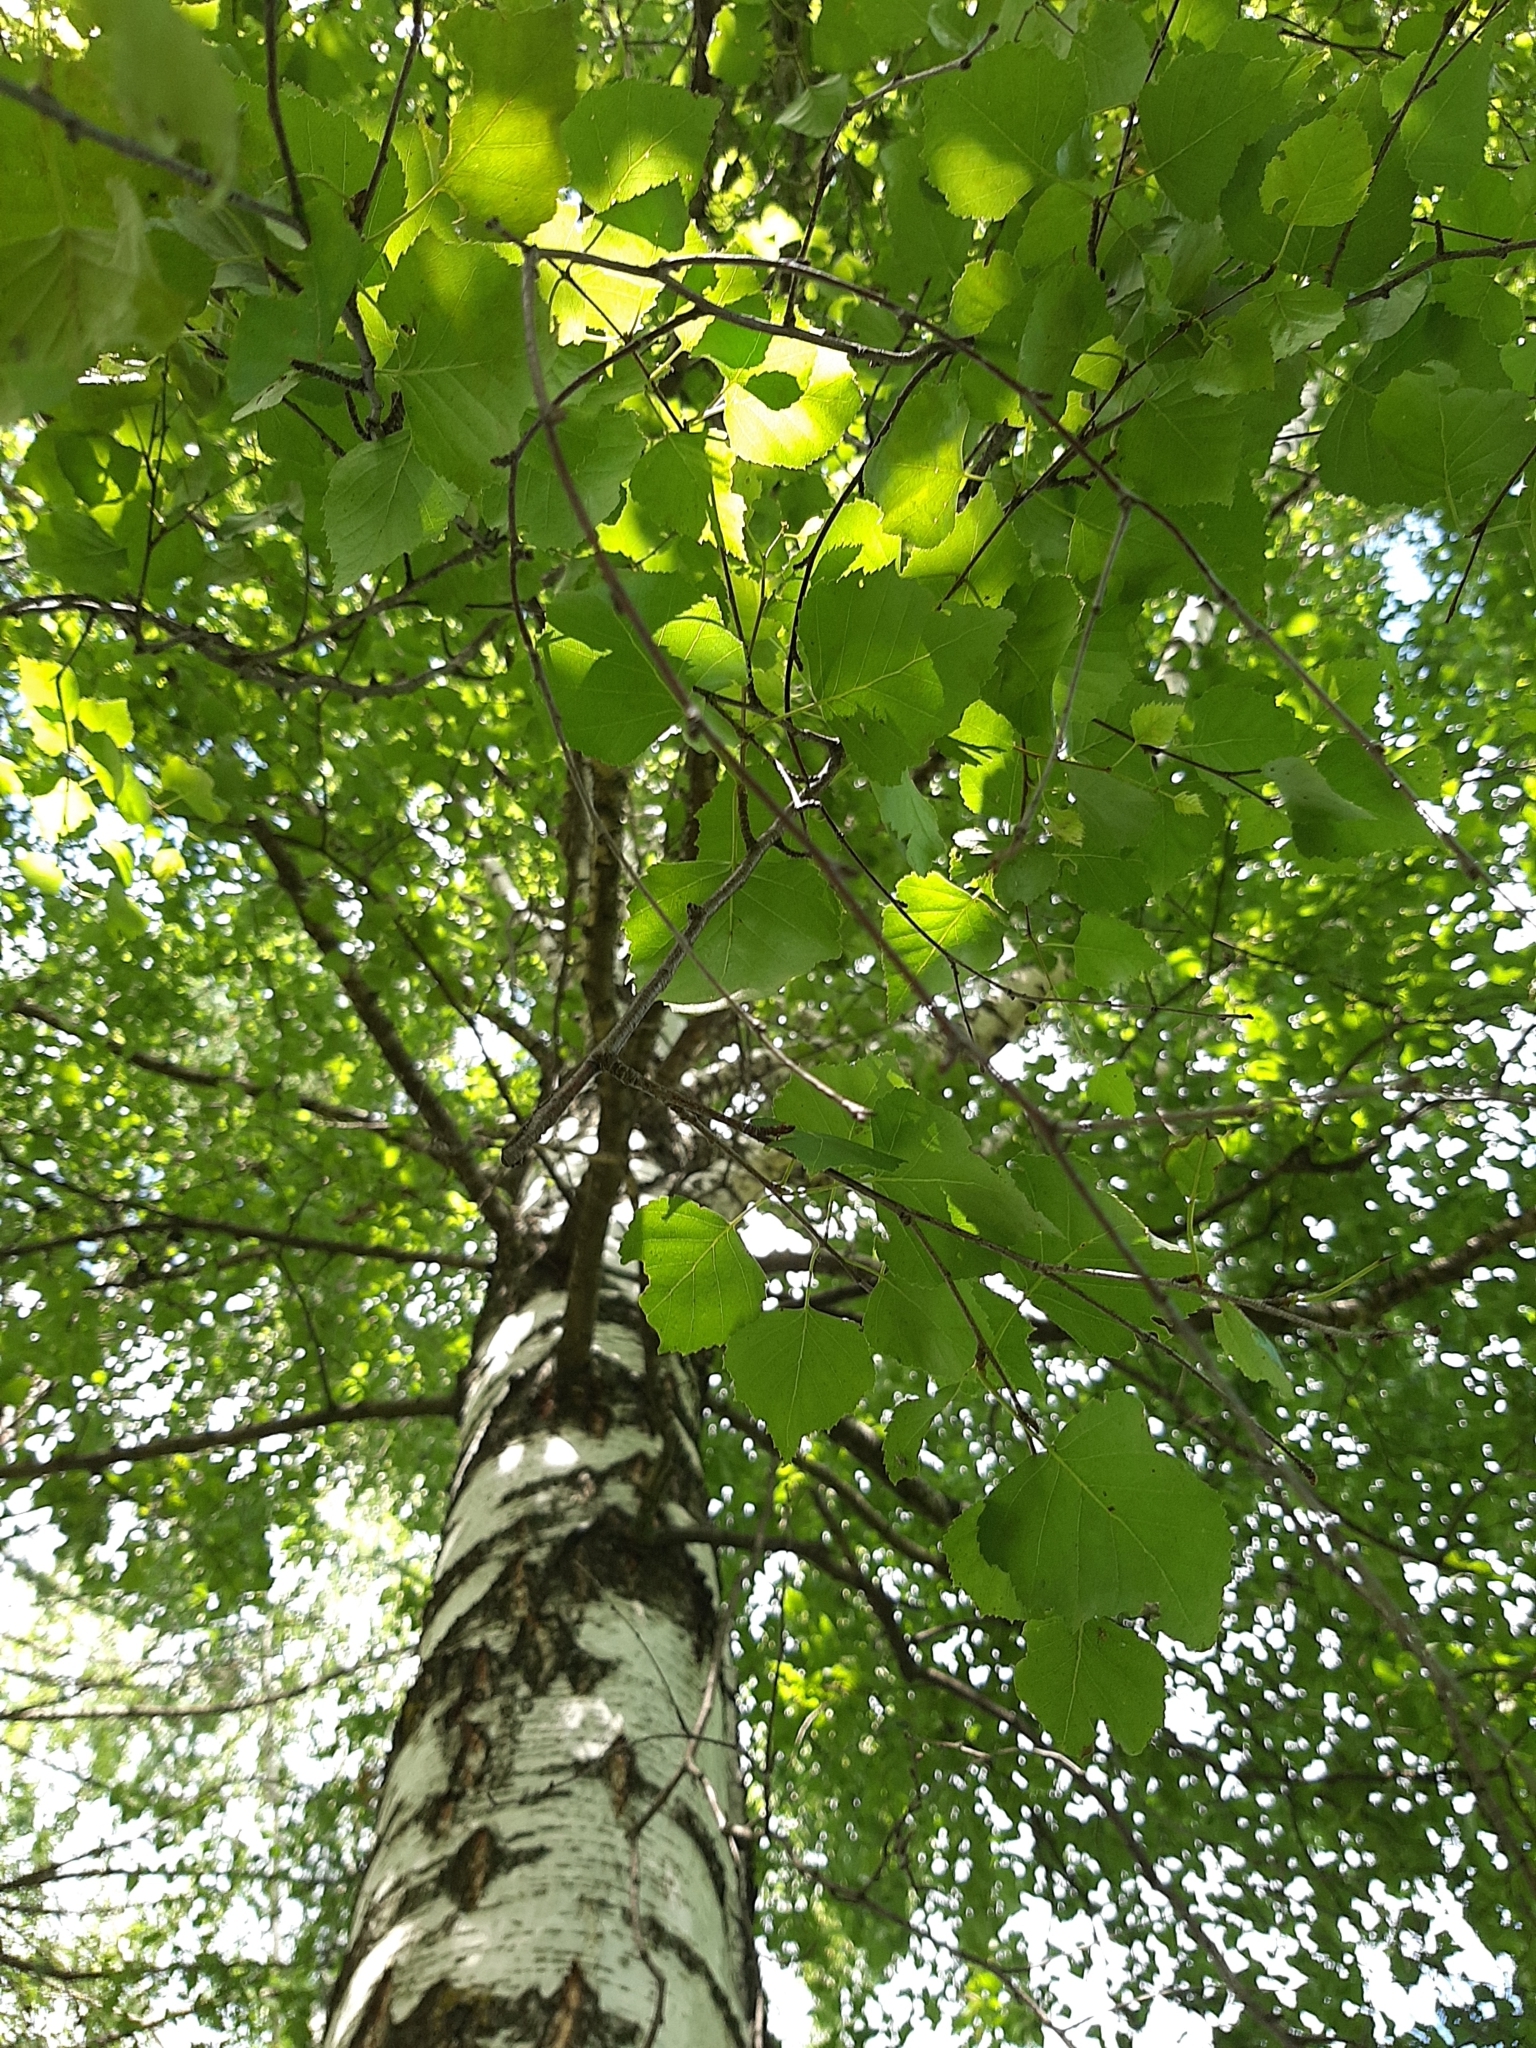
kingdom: Plantae
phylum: Tracheophyta
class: Magnoliopsida
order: Fagales
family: Betulaceae
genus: Betula
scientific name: Betula pendula
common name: Silver birch
